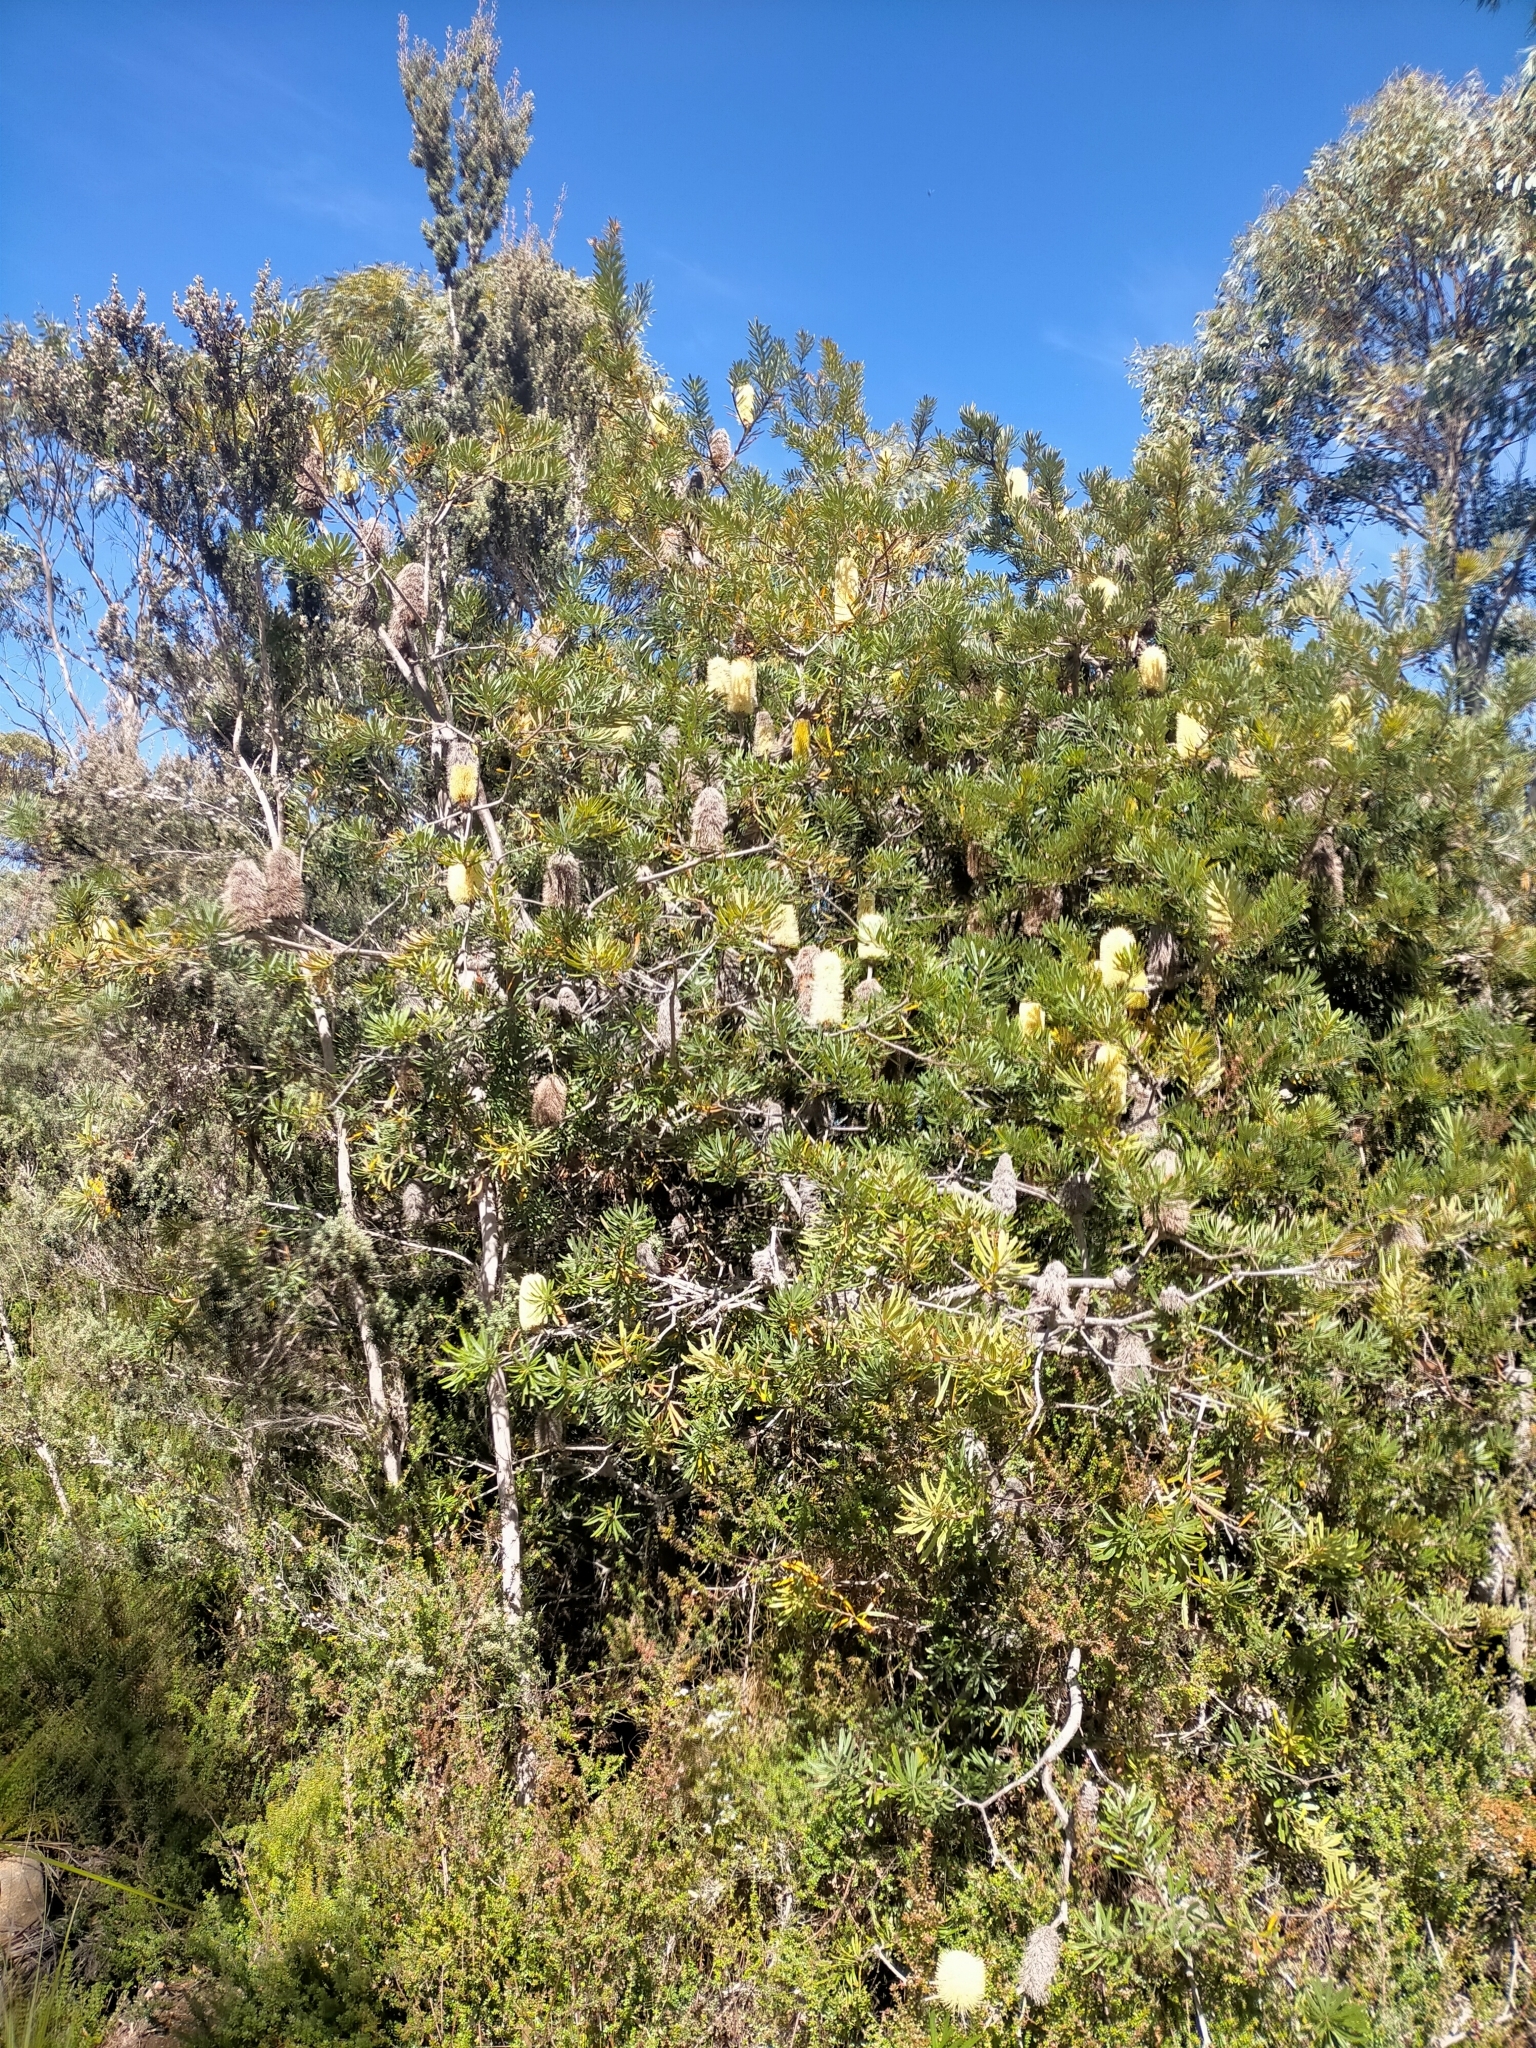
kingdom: Plantae
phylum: Tracheophyta
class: Magnoliopsida
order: Proteales
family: Proteaceae
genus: Banksia
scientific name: Banksia marginata
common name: Silver banksia
